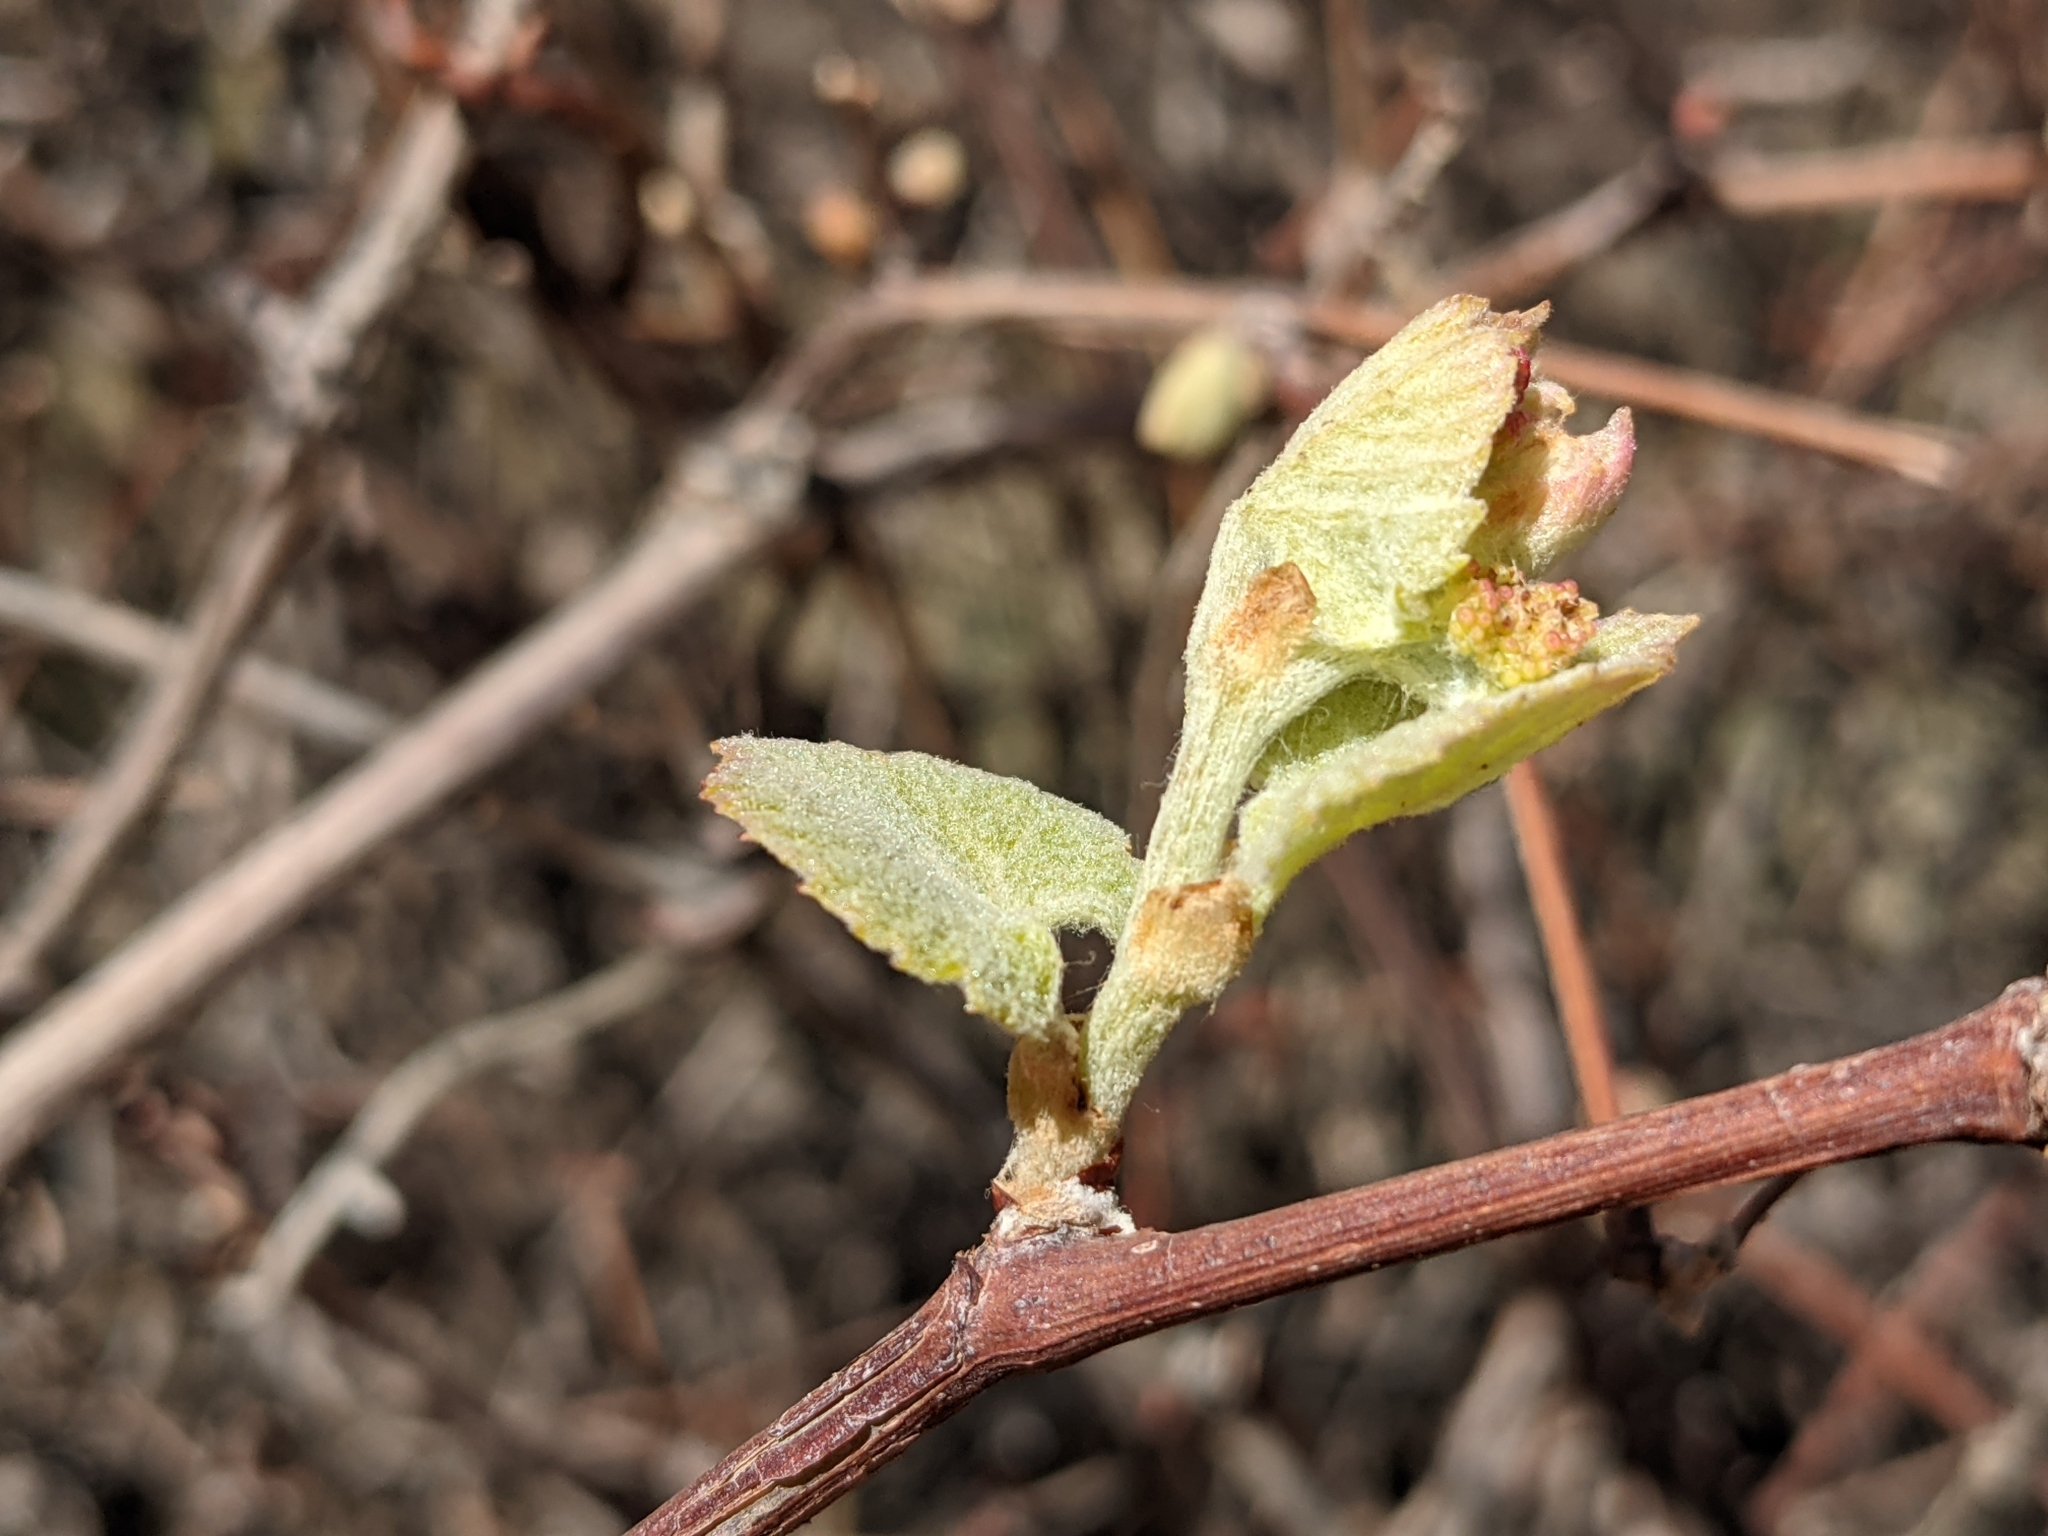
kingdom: Plantae
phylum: Tracheophyta
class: Magnoliopsida
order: Vitales
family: Vitaceae
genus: Vitis
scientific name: Vitis arizonica
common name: Canyon grape
